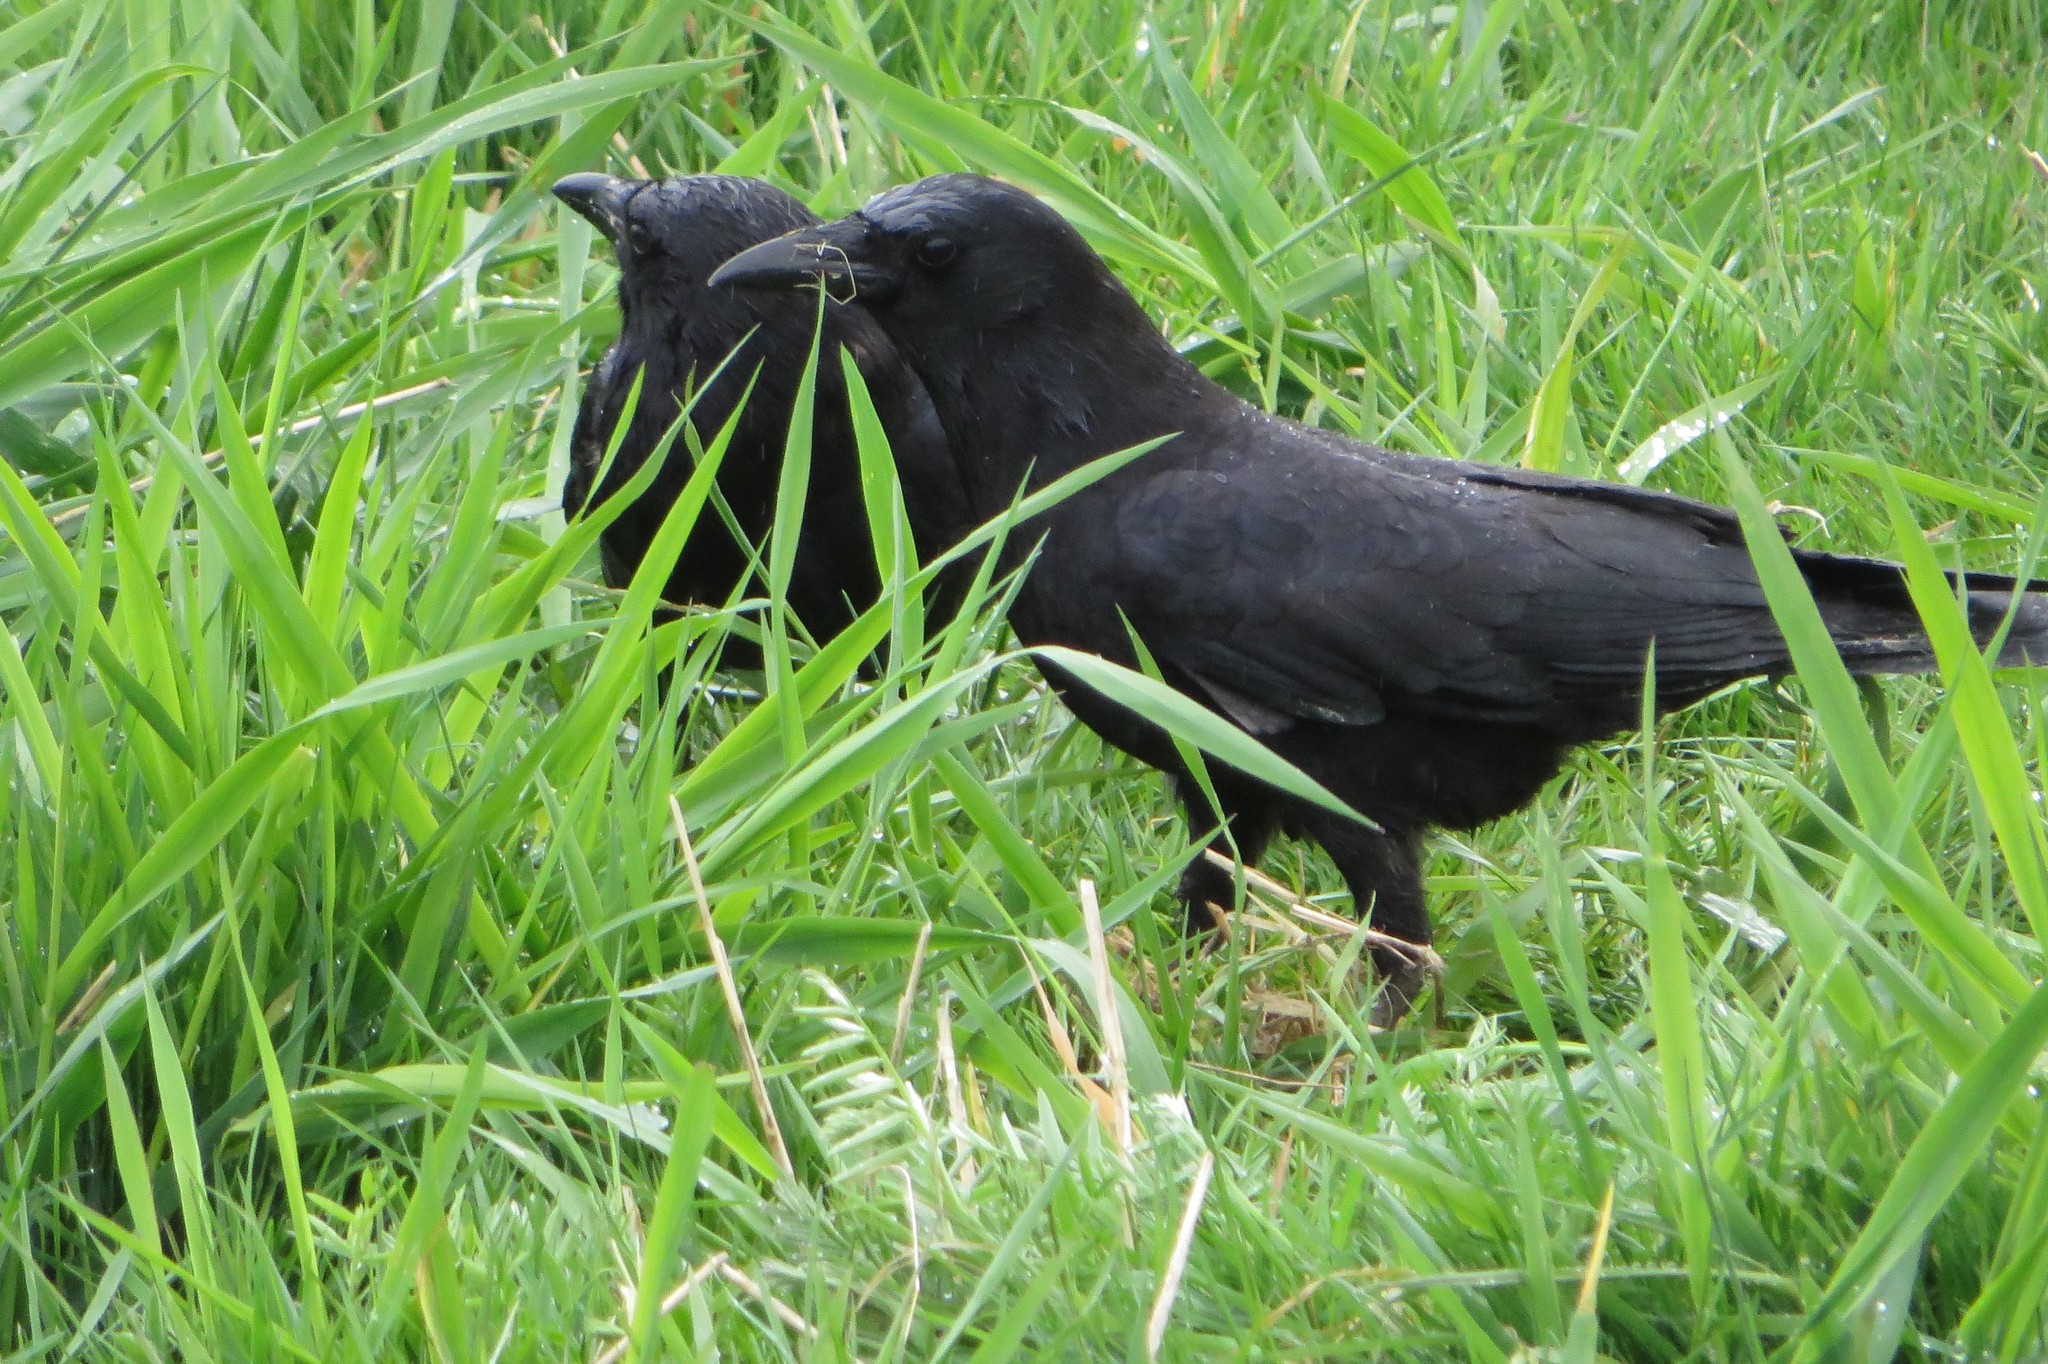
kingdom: Animalia
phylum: Chordata
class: Aves
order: Passeriformes
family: Corvidae
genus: Corvus
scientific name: Corvus brachyrhynchos
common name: American crow
